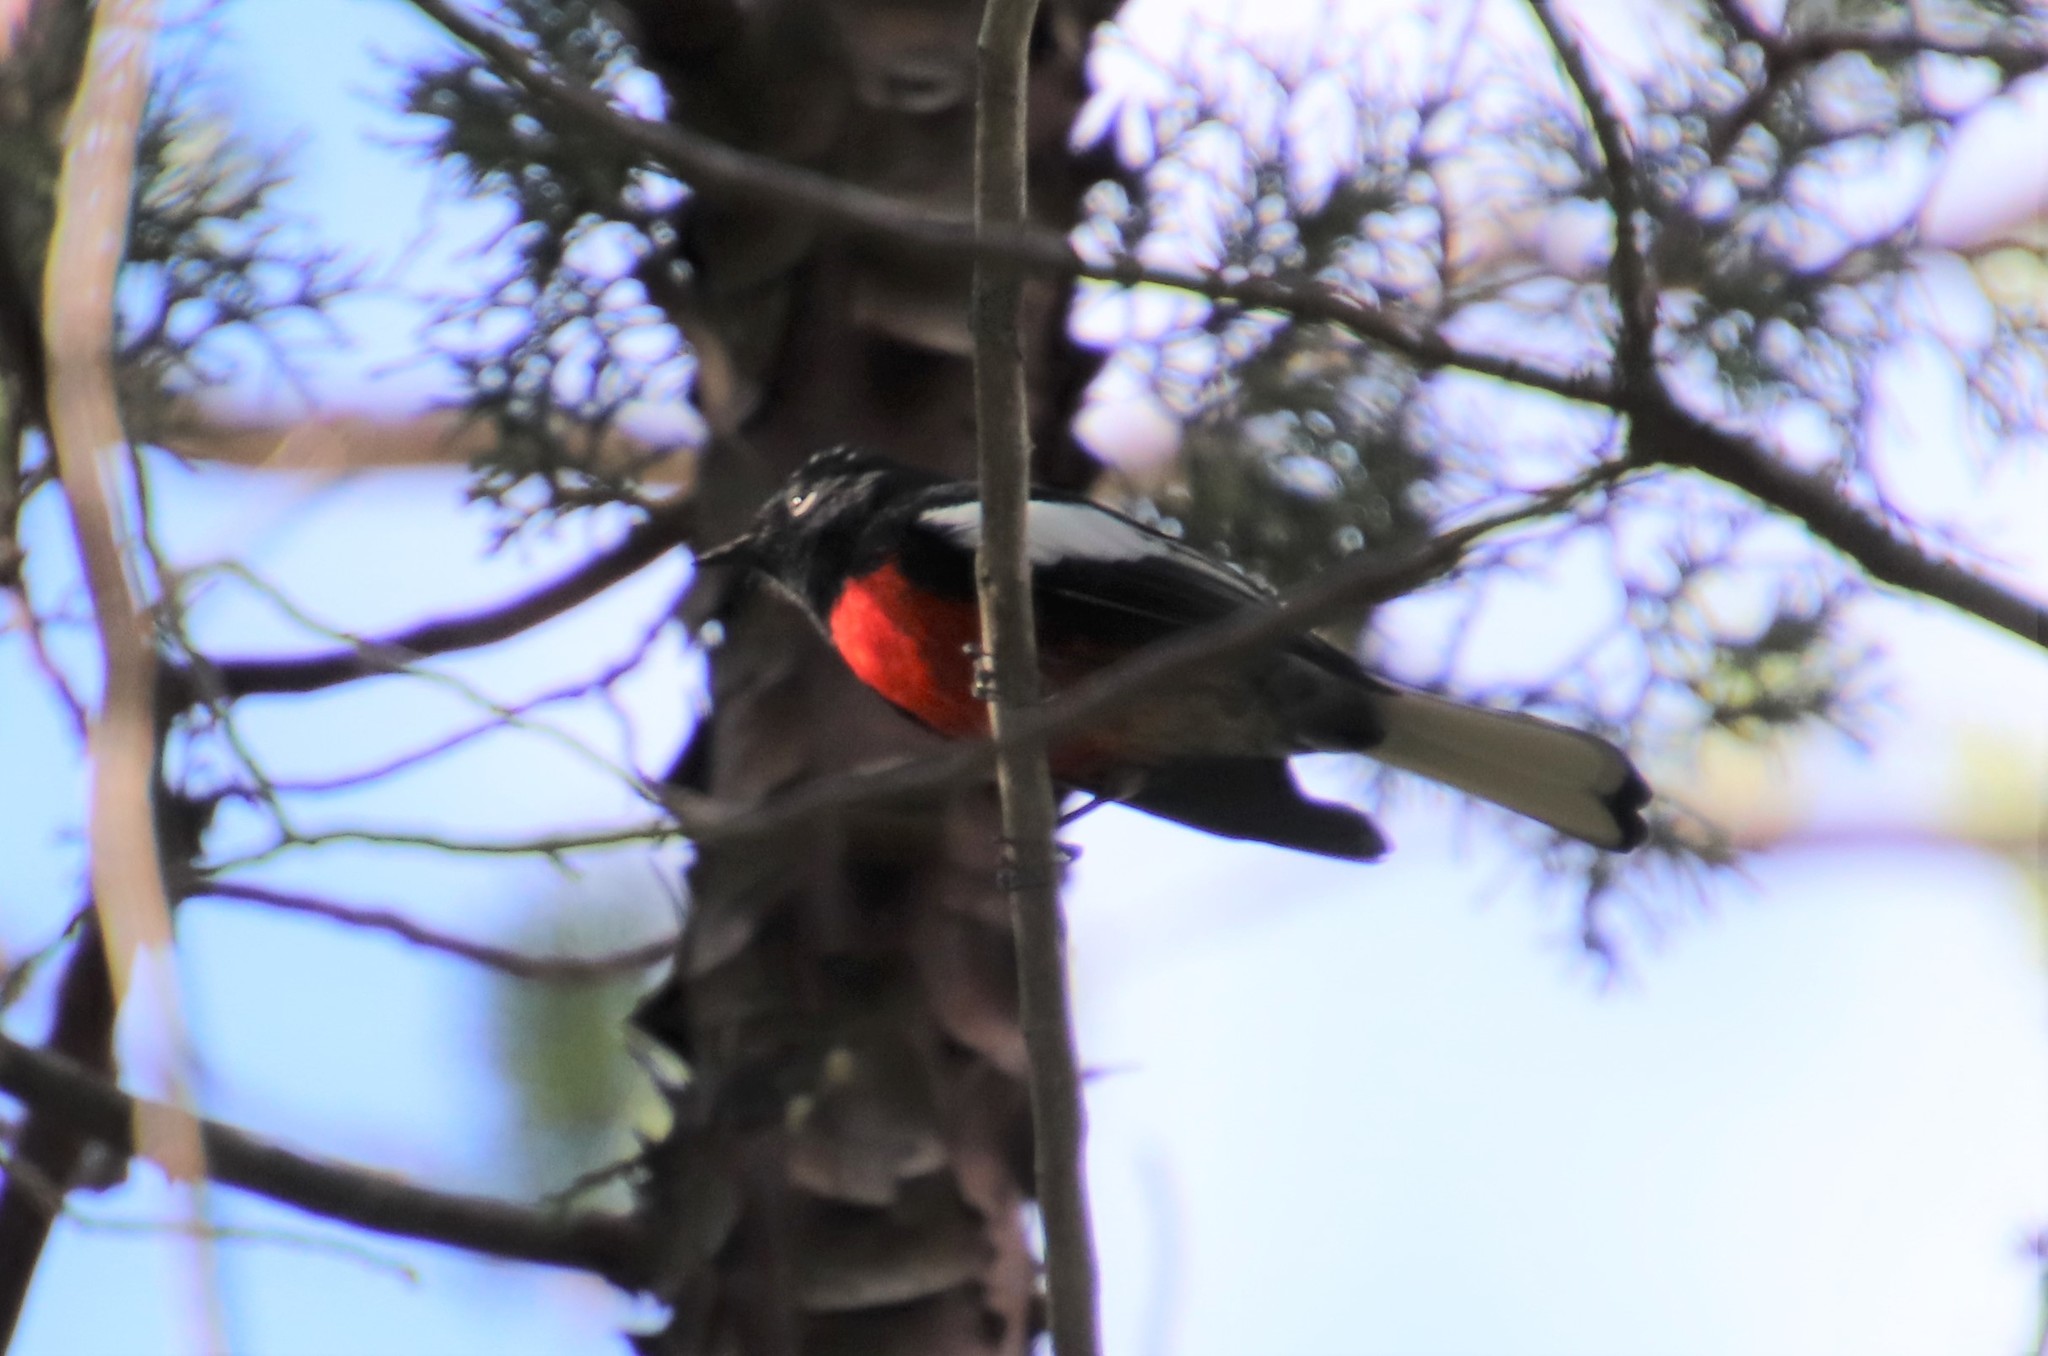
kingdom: Animalia
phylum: Chordata
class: Aves
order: Passeriformes
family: Parulidae
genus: Myioborus
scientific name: Myioborus pictus
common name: Painted whitestart
